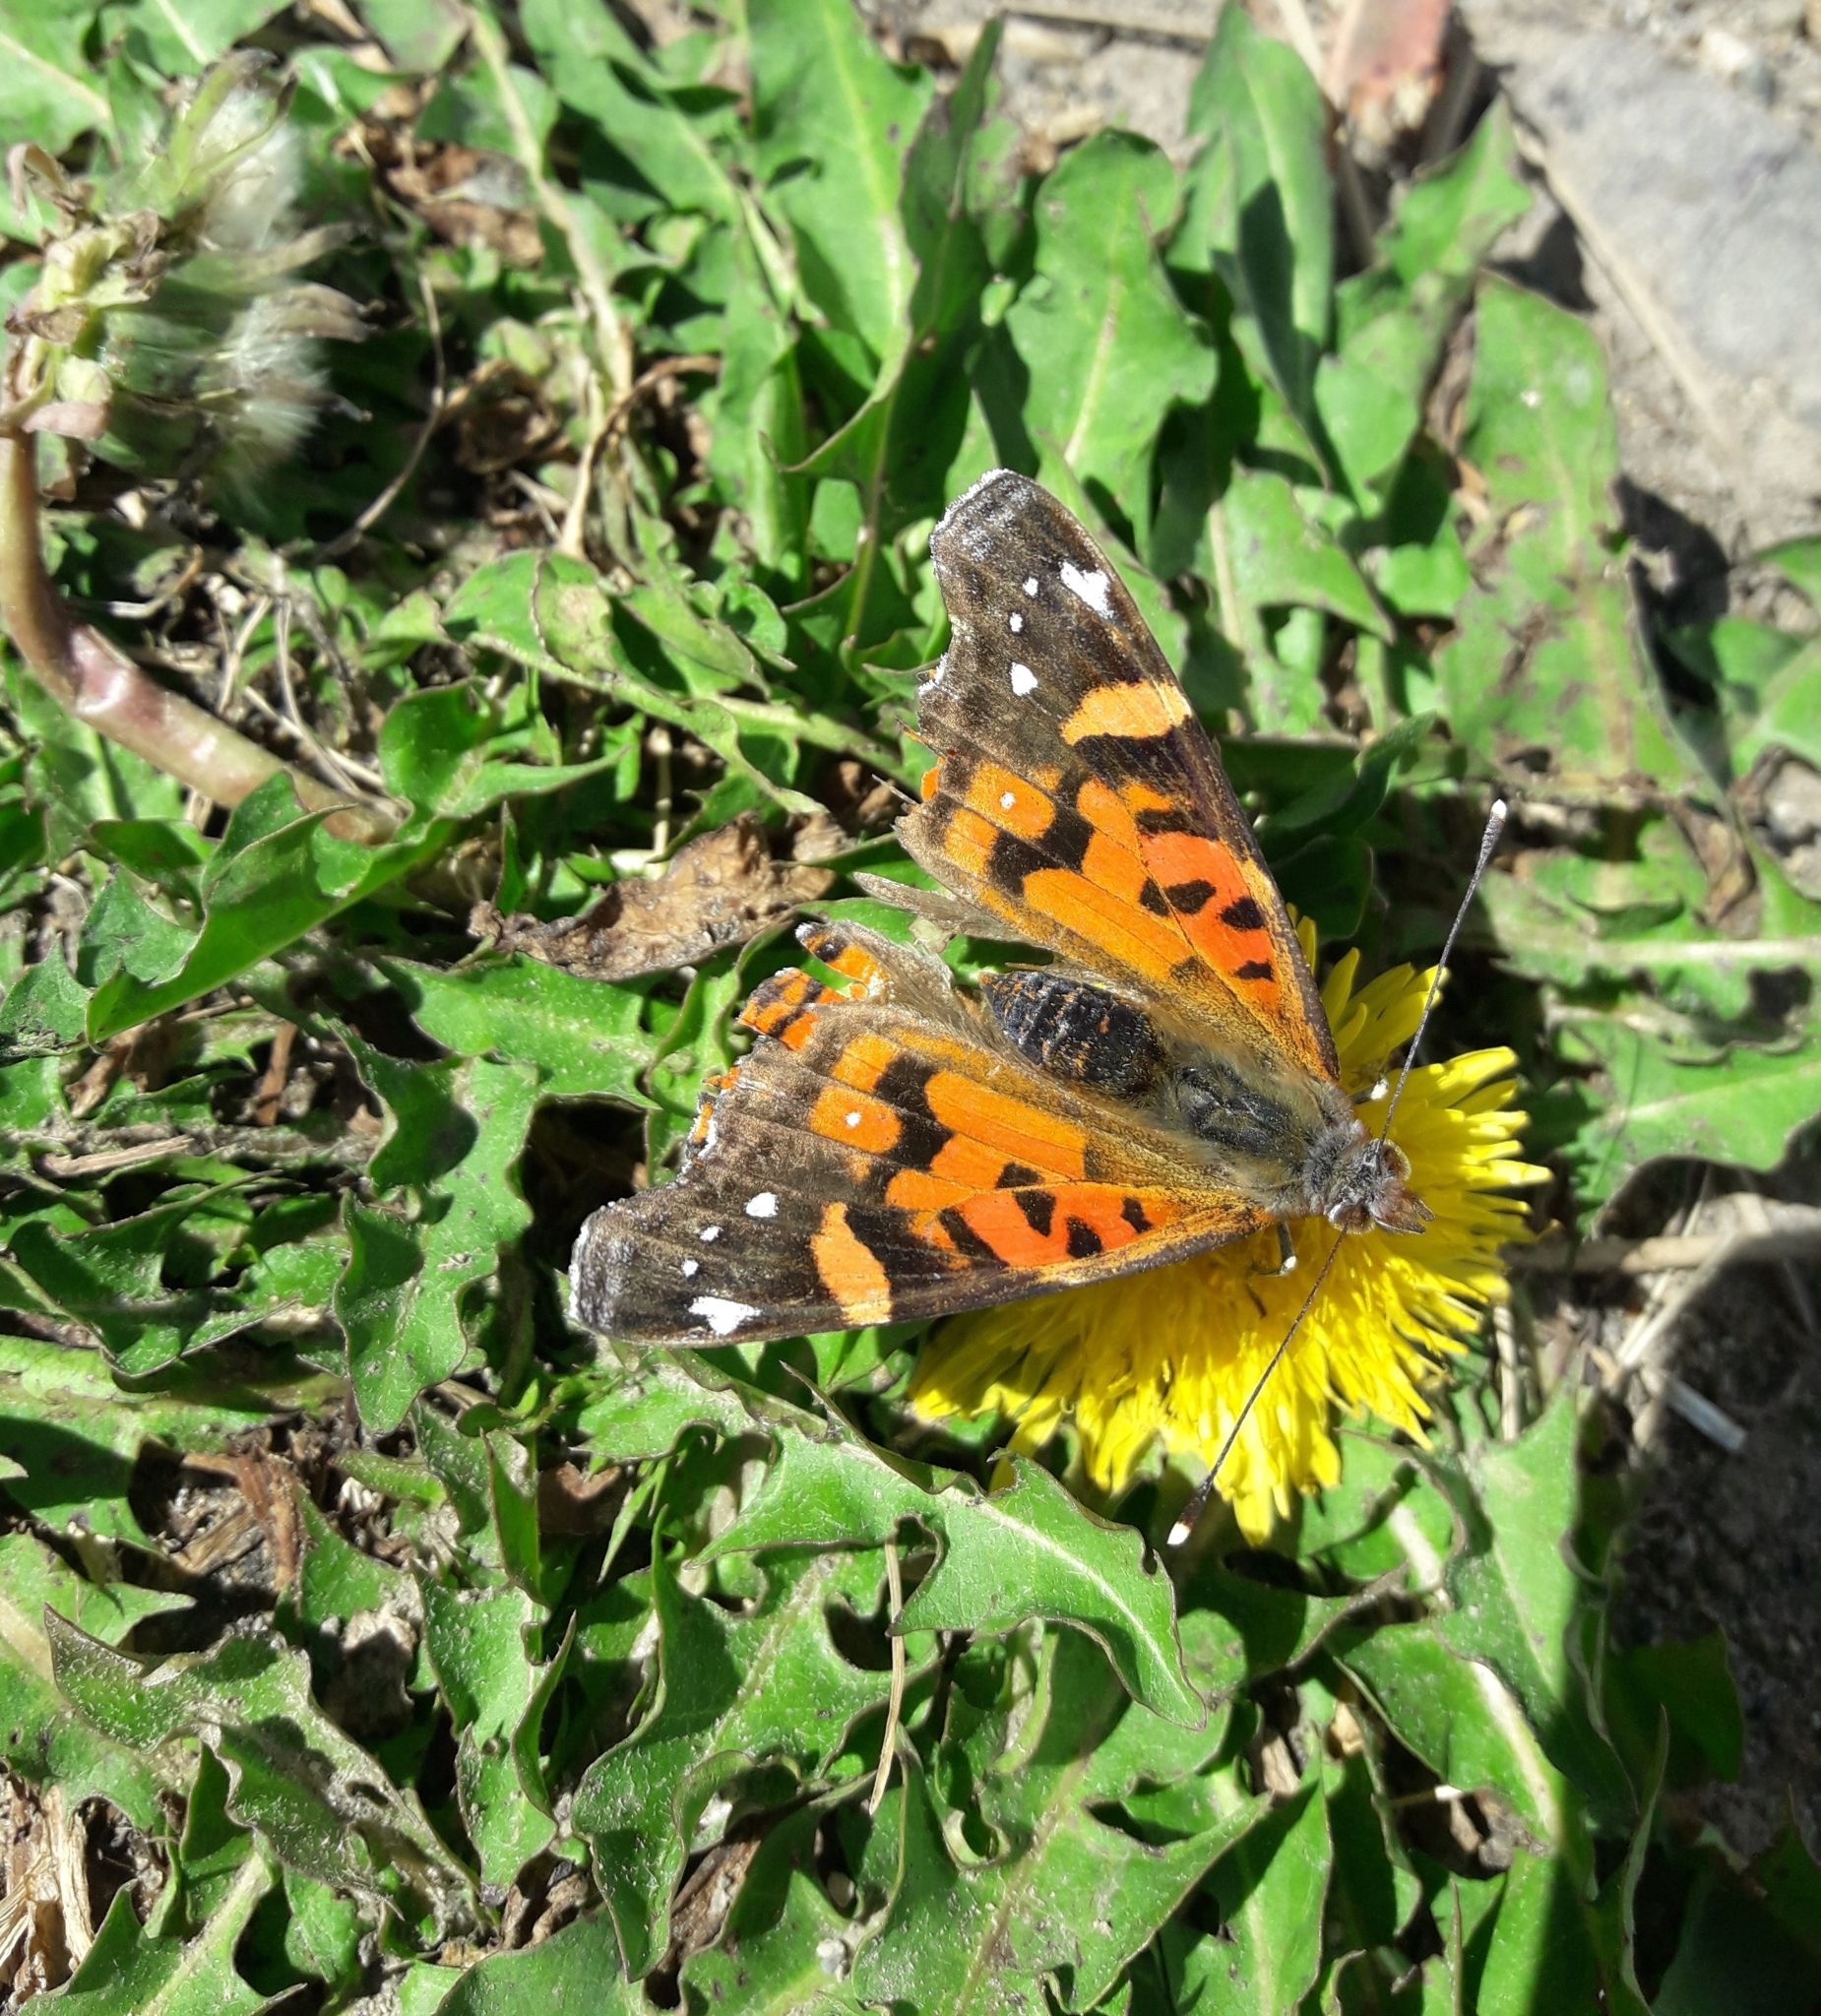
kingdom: Animalia
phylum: Arthropoda
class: Insecta
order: Lepidoptera
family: Nymphalidae
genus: Vanessa
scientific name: Vanessa terpsichore
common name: Chilean lady
